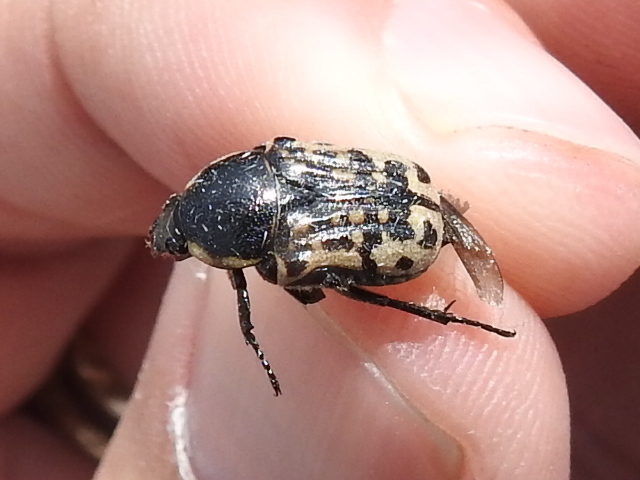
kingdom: Animalia
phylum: Arthropoda
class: Insecta
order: Coleoptera
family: Scarabaeidae
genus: Euphoria
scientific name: Euphoria kernii
